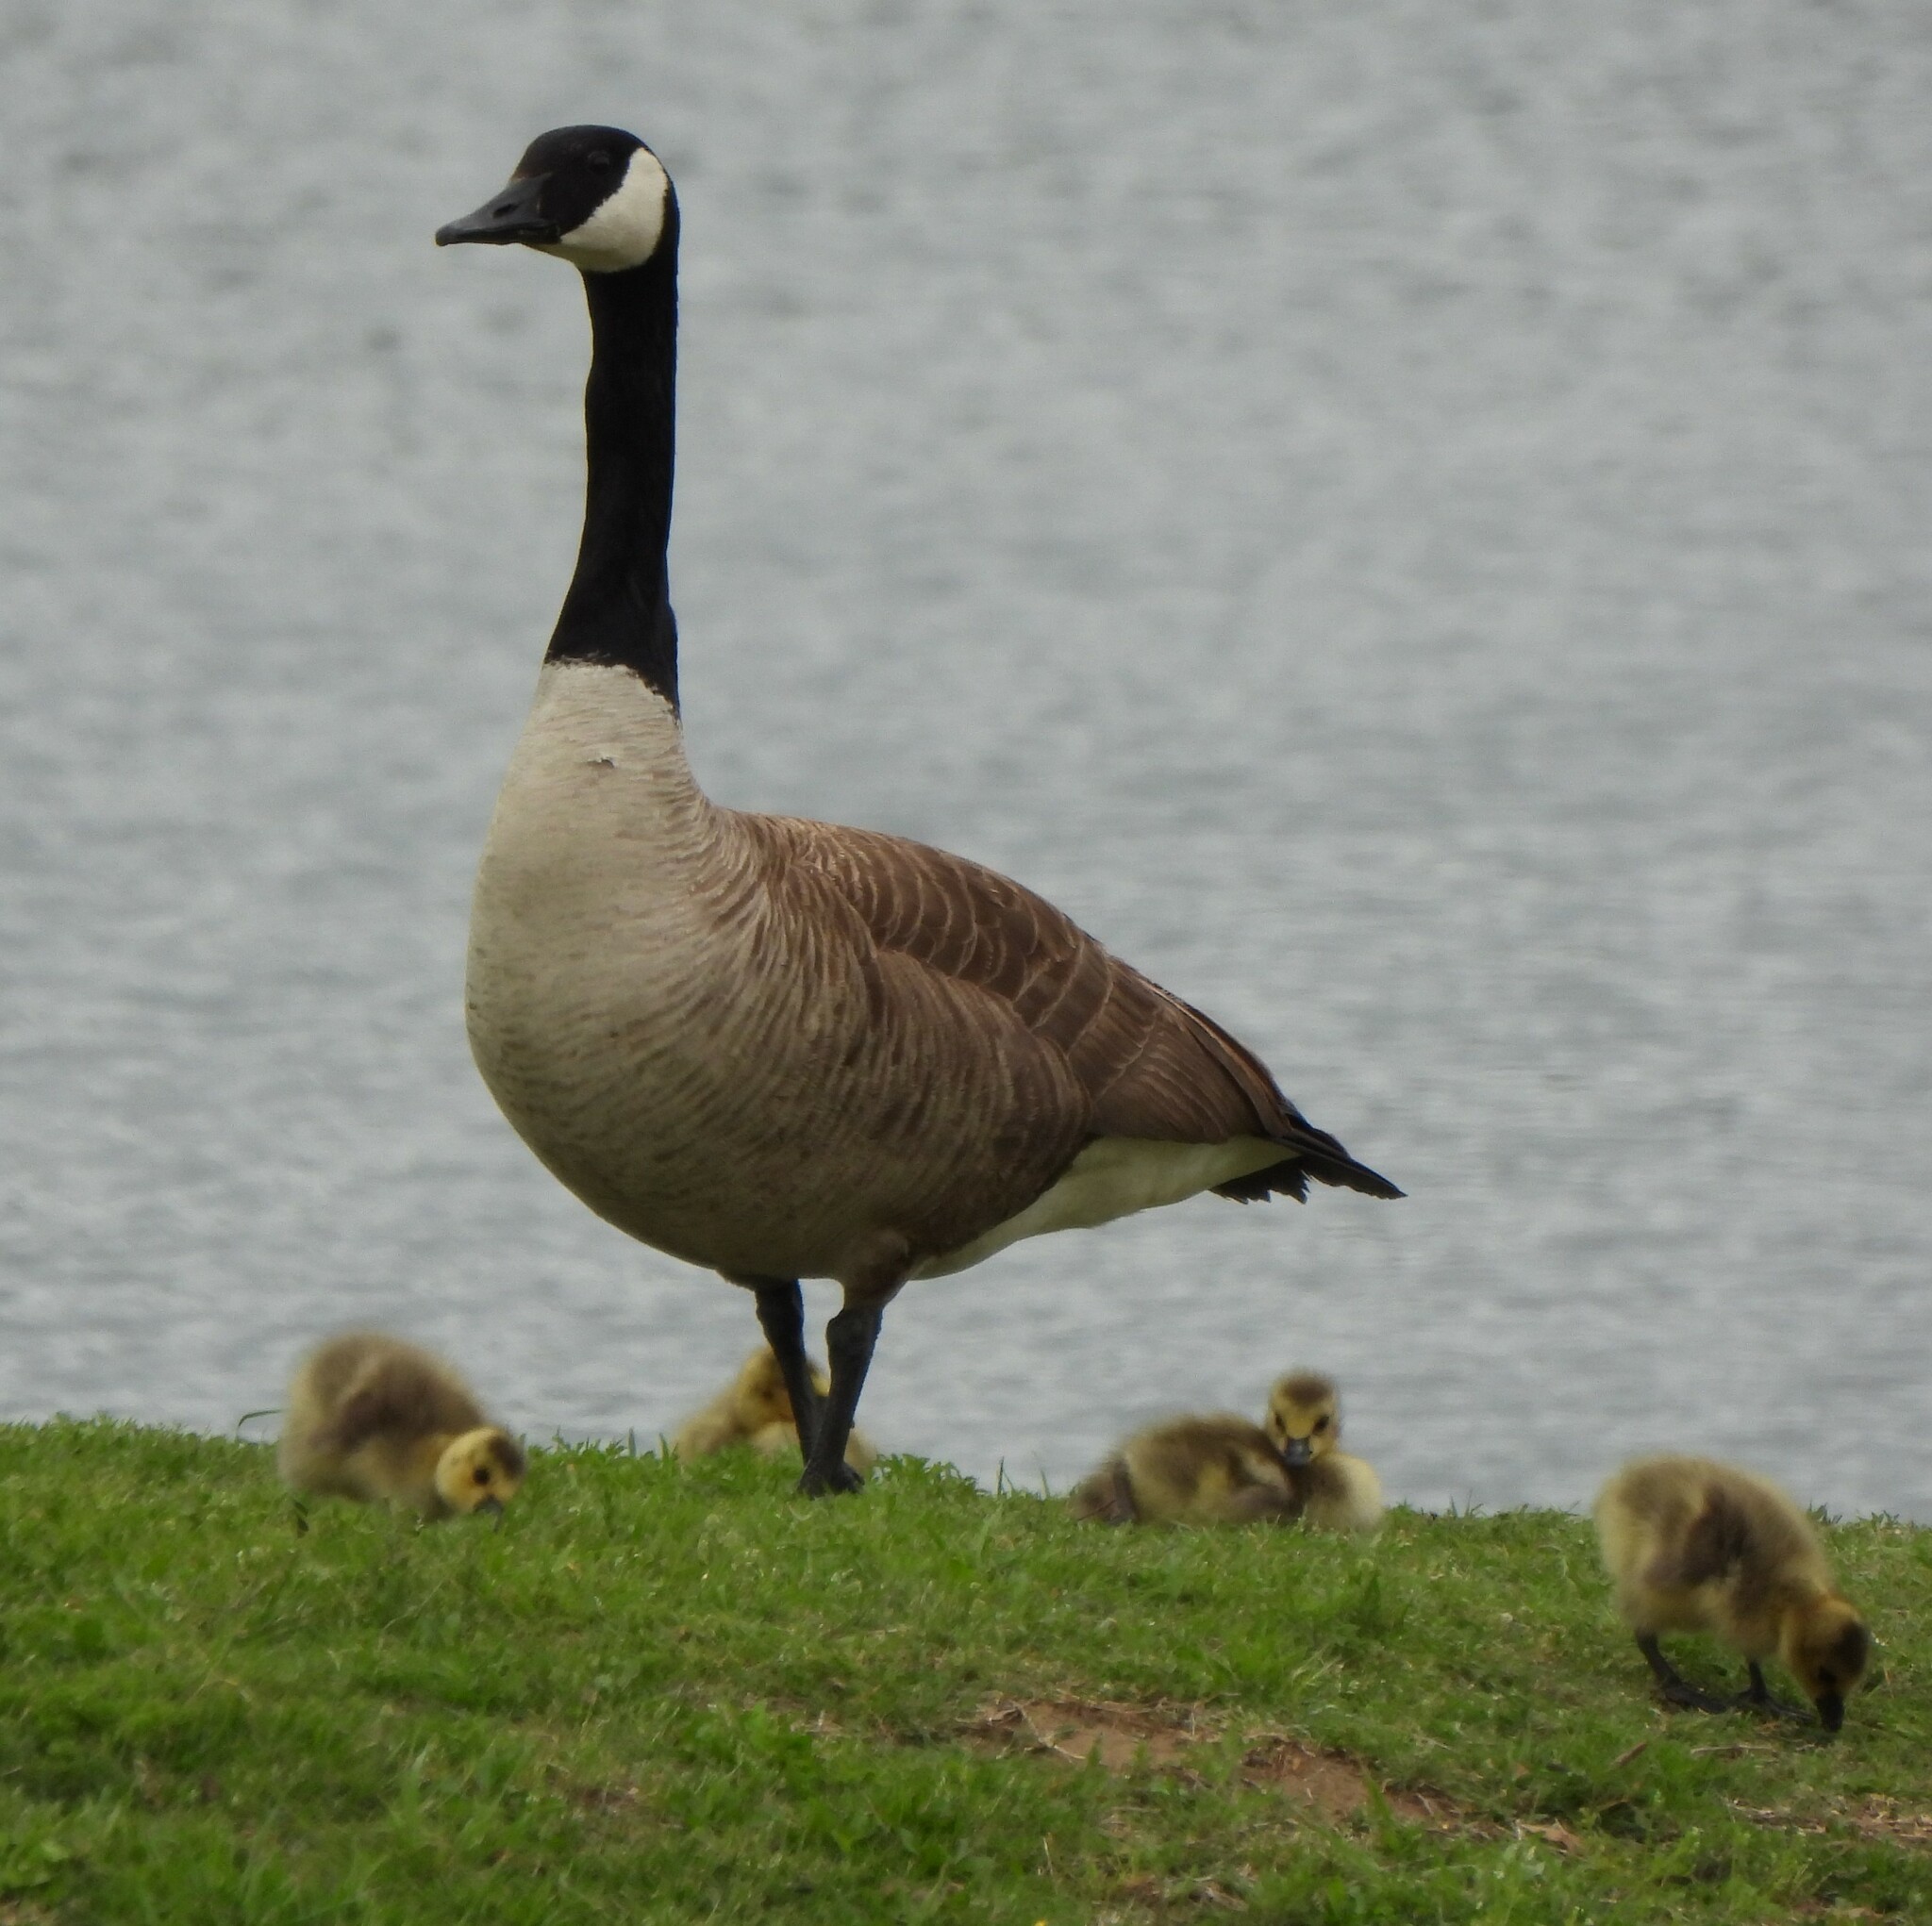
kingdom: Animalia
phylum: Chordata
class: Aves
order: Anseriformes
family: Anatidae
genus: Branta
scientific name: Branta canadensis
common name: Canada goose
